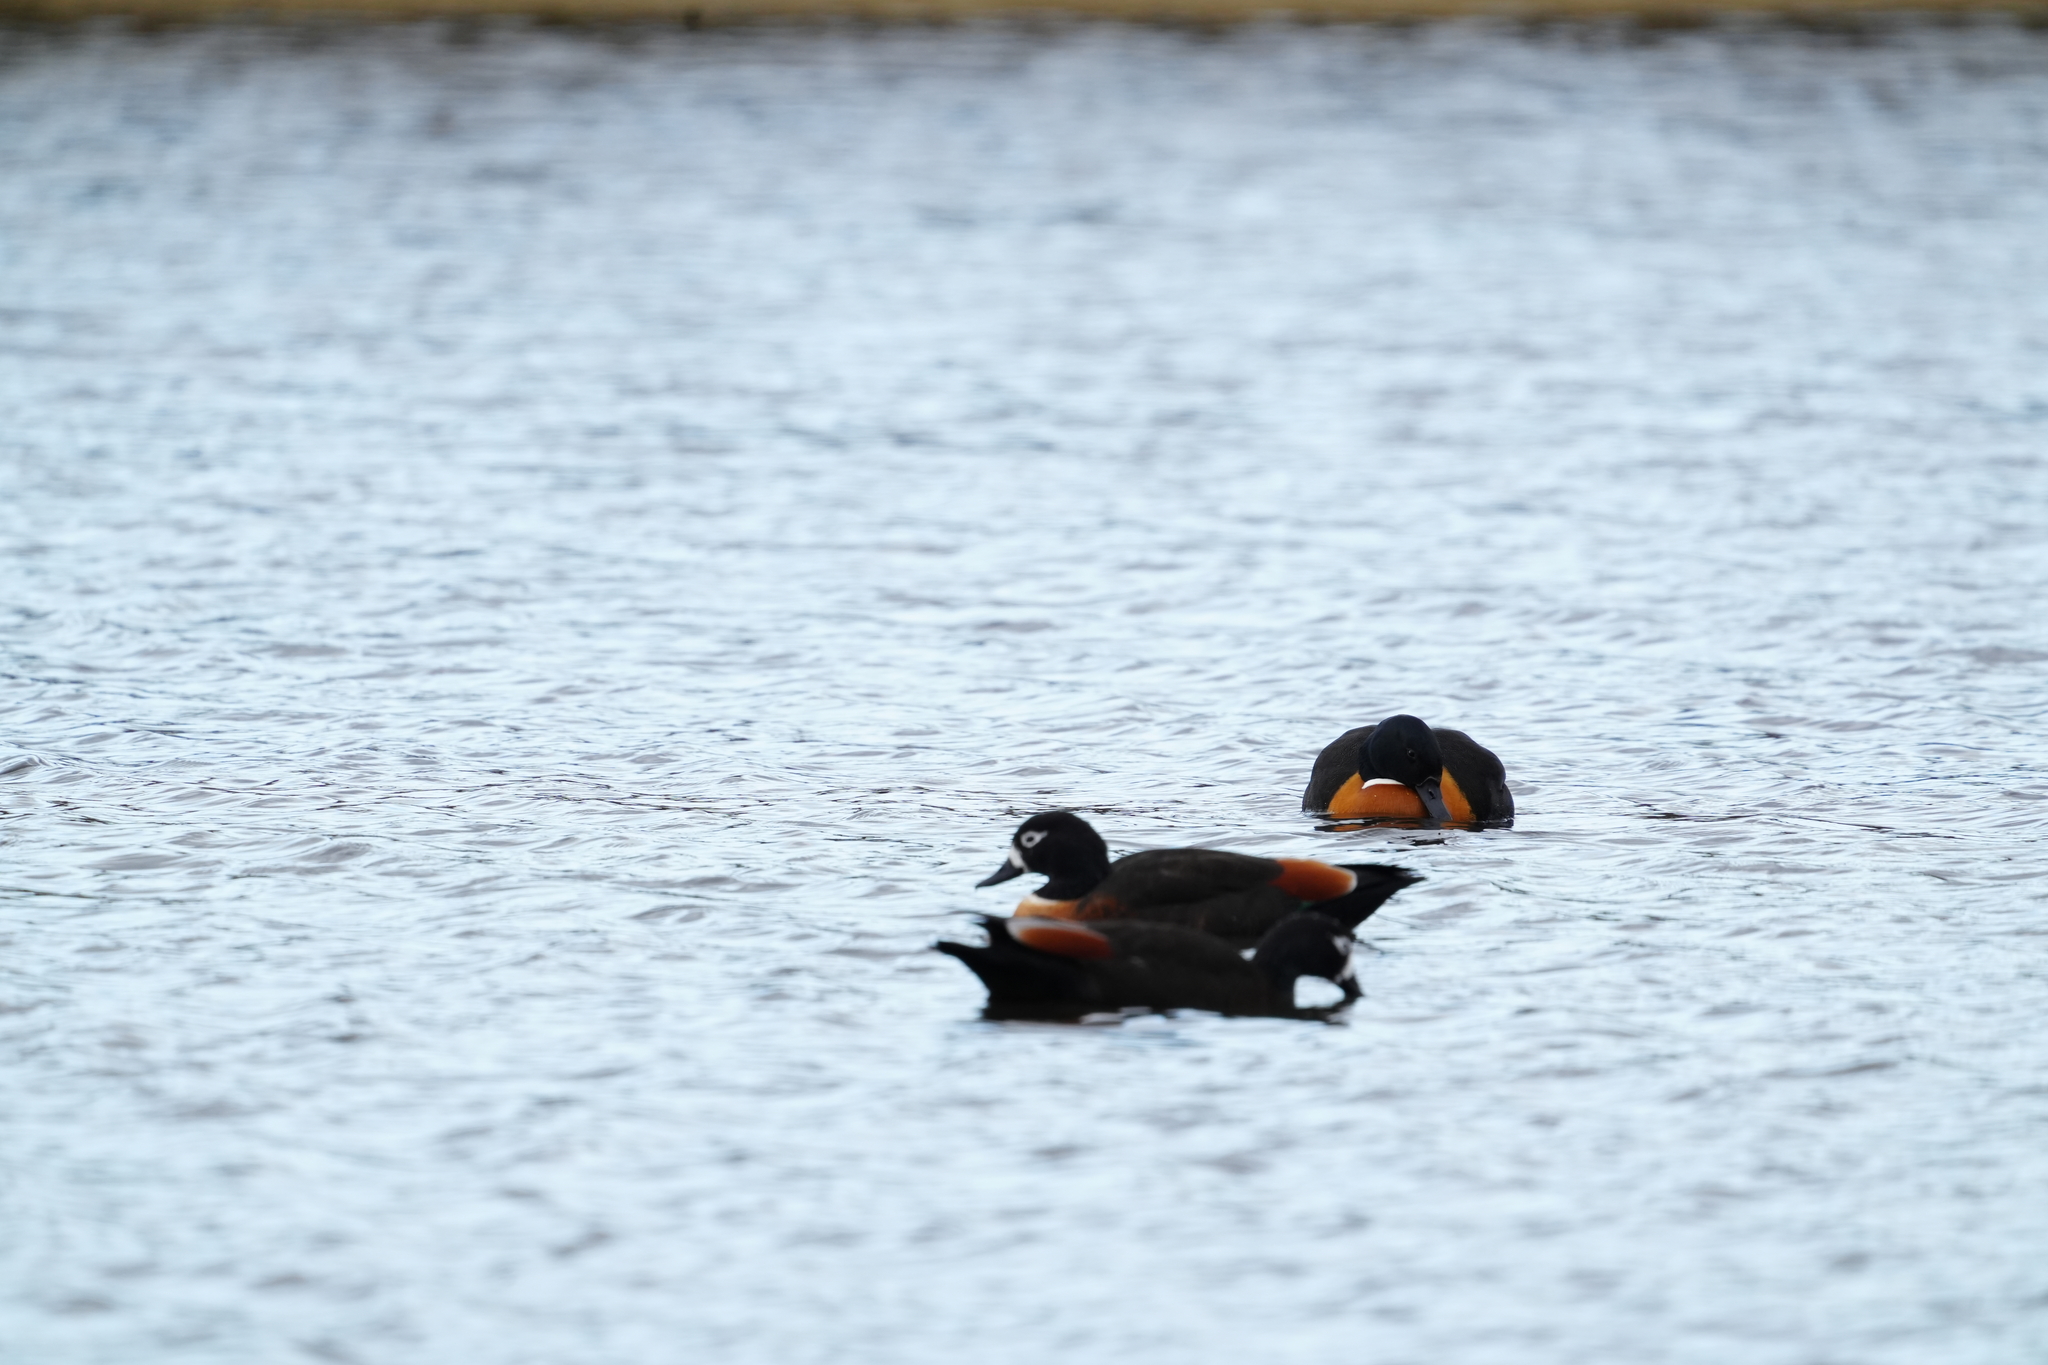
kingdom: Animalia
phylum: Chordata
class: Aves
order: Anseriformes
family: Anatidae
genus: Tadorna
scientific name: Tadorna tadornoides
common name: Australian shelduck
